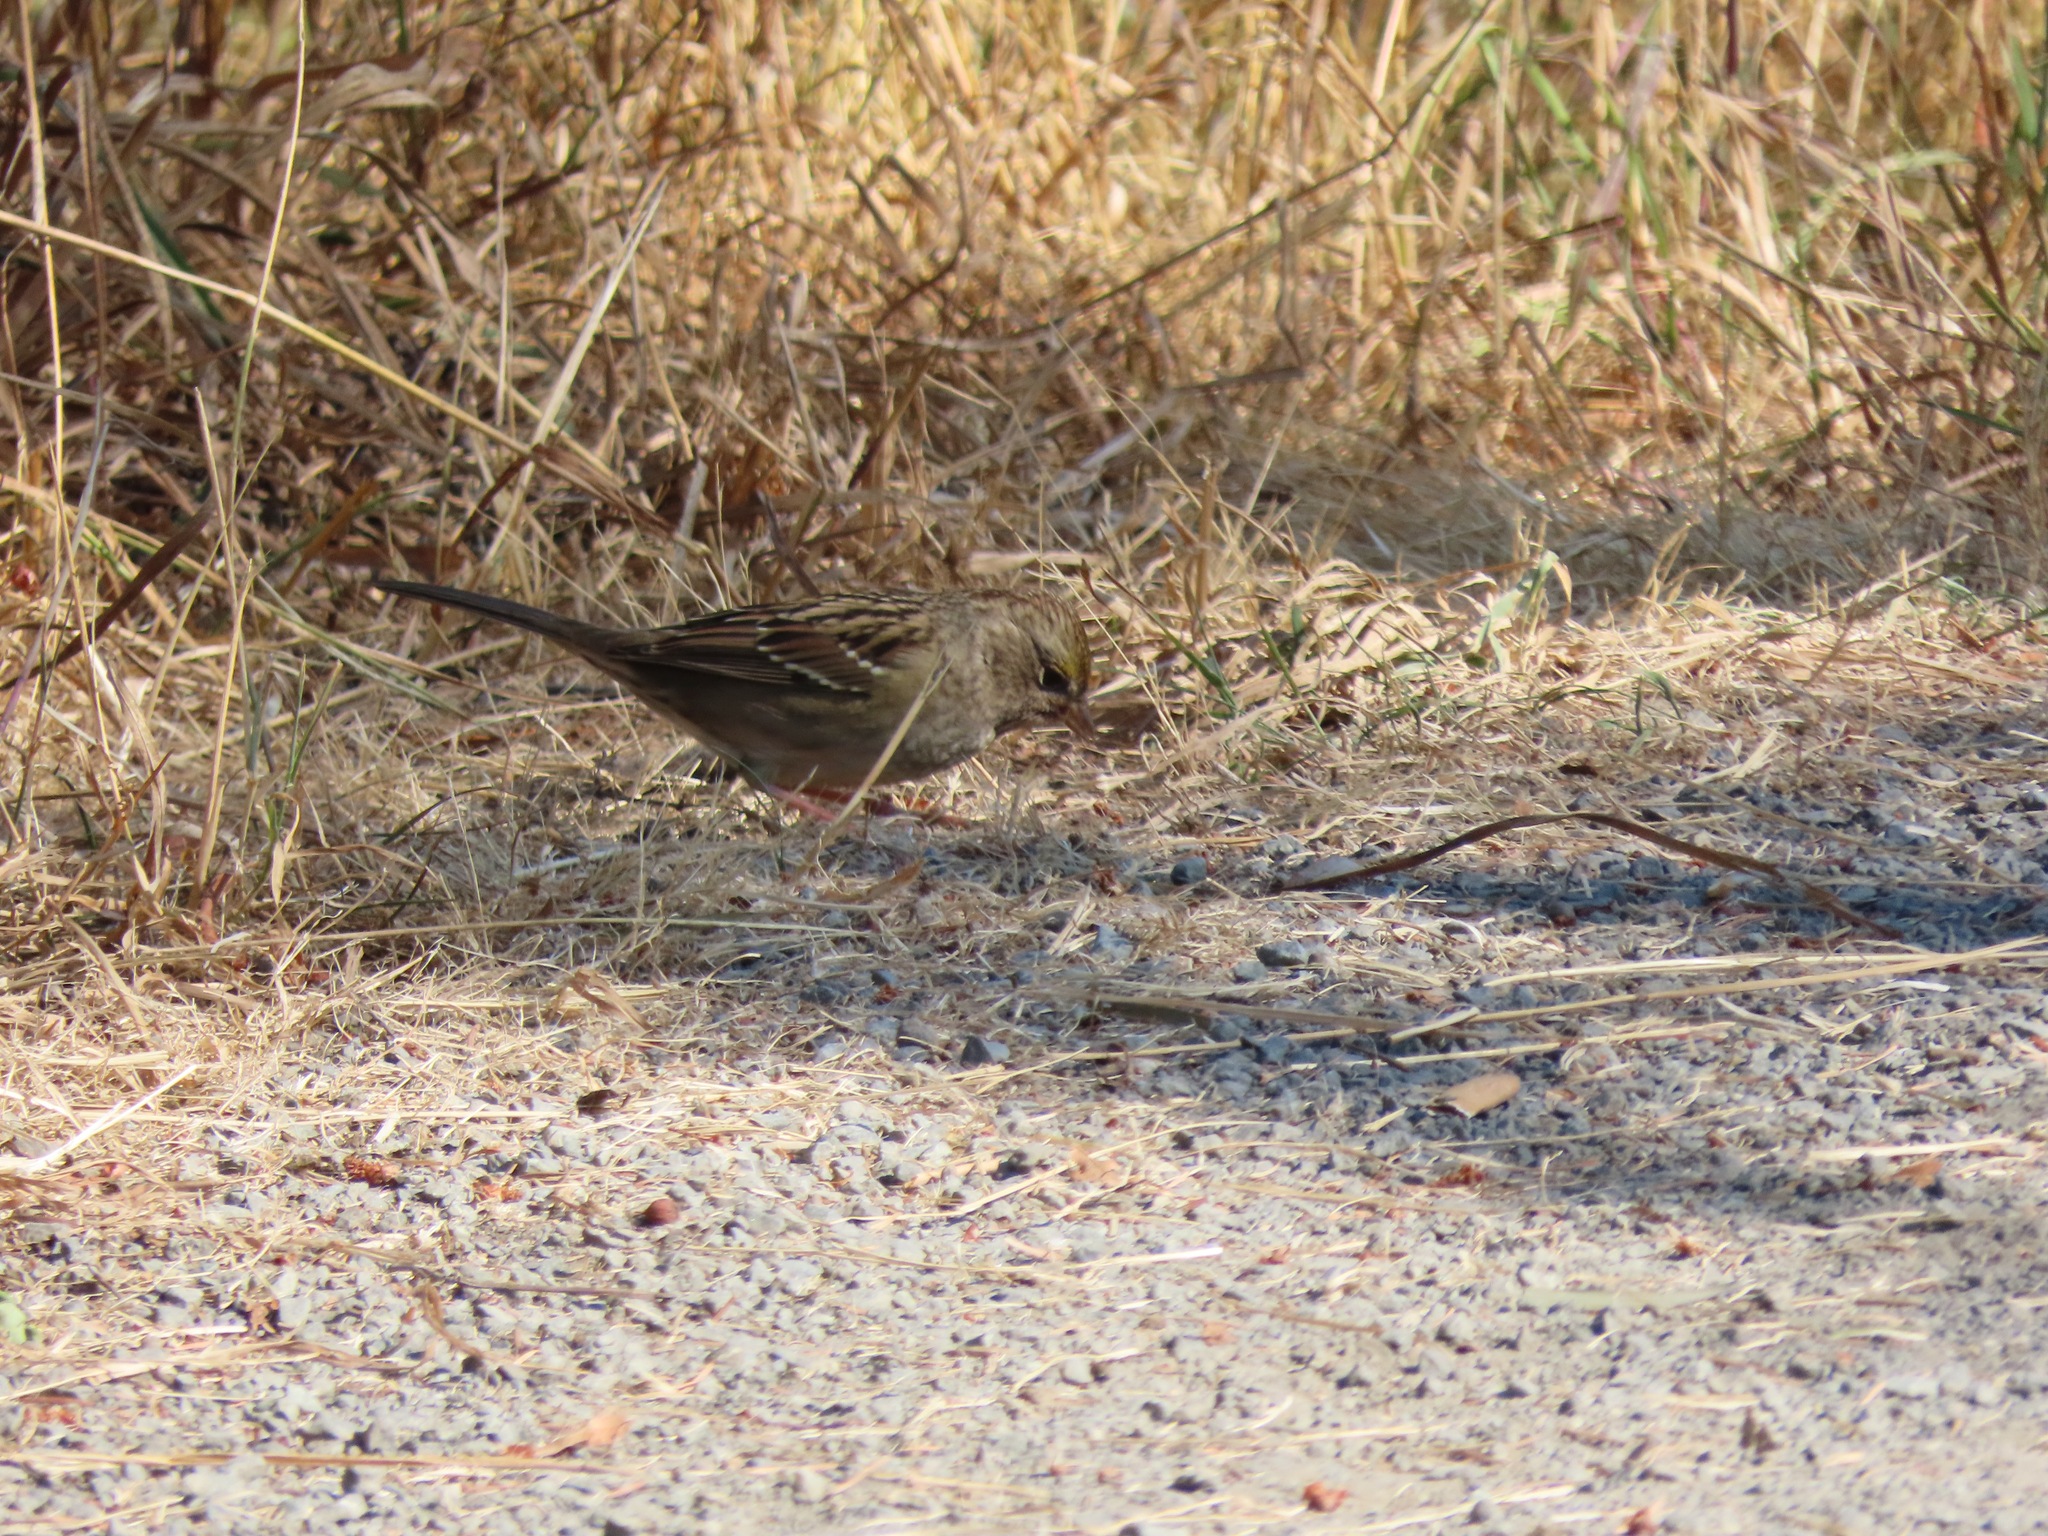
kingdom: Animalia
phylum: Chordata
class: Aves
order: Passeriformes
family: Passerellidae
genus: Zonotrichia
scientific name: Zonotrichia atricapilla
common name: Golden-crowned sparrow
